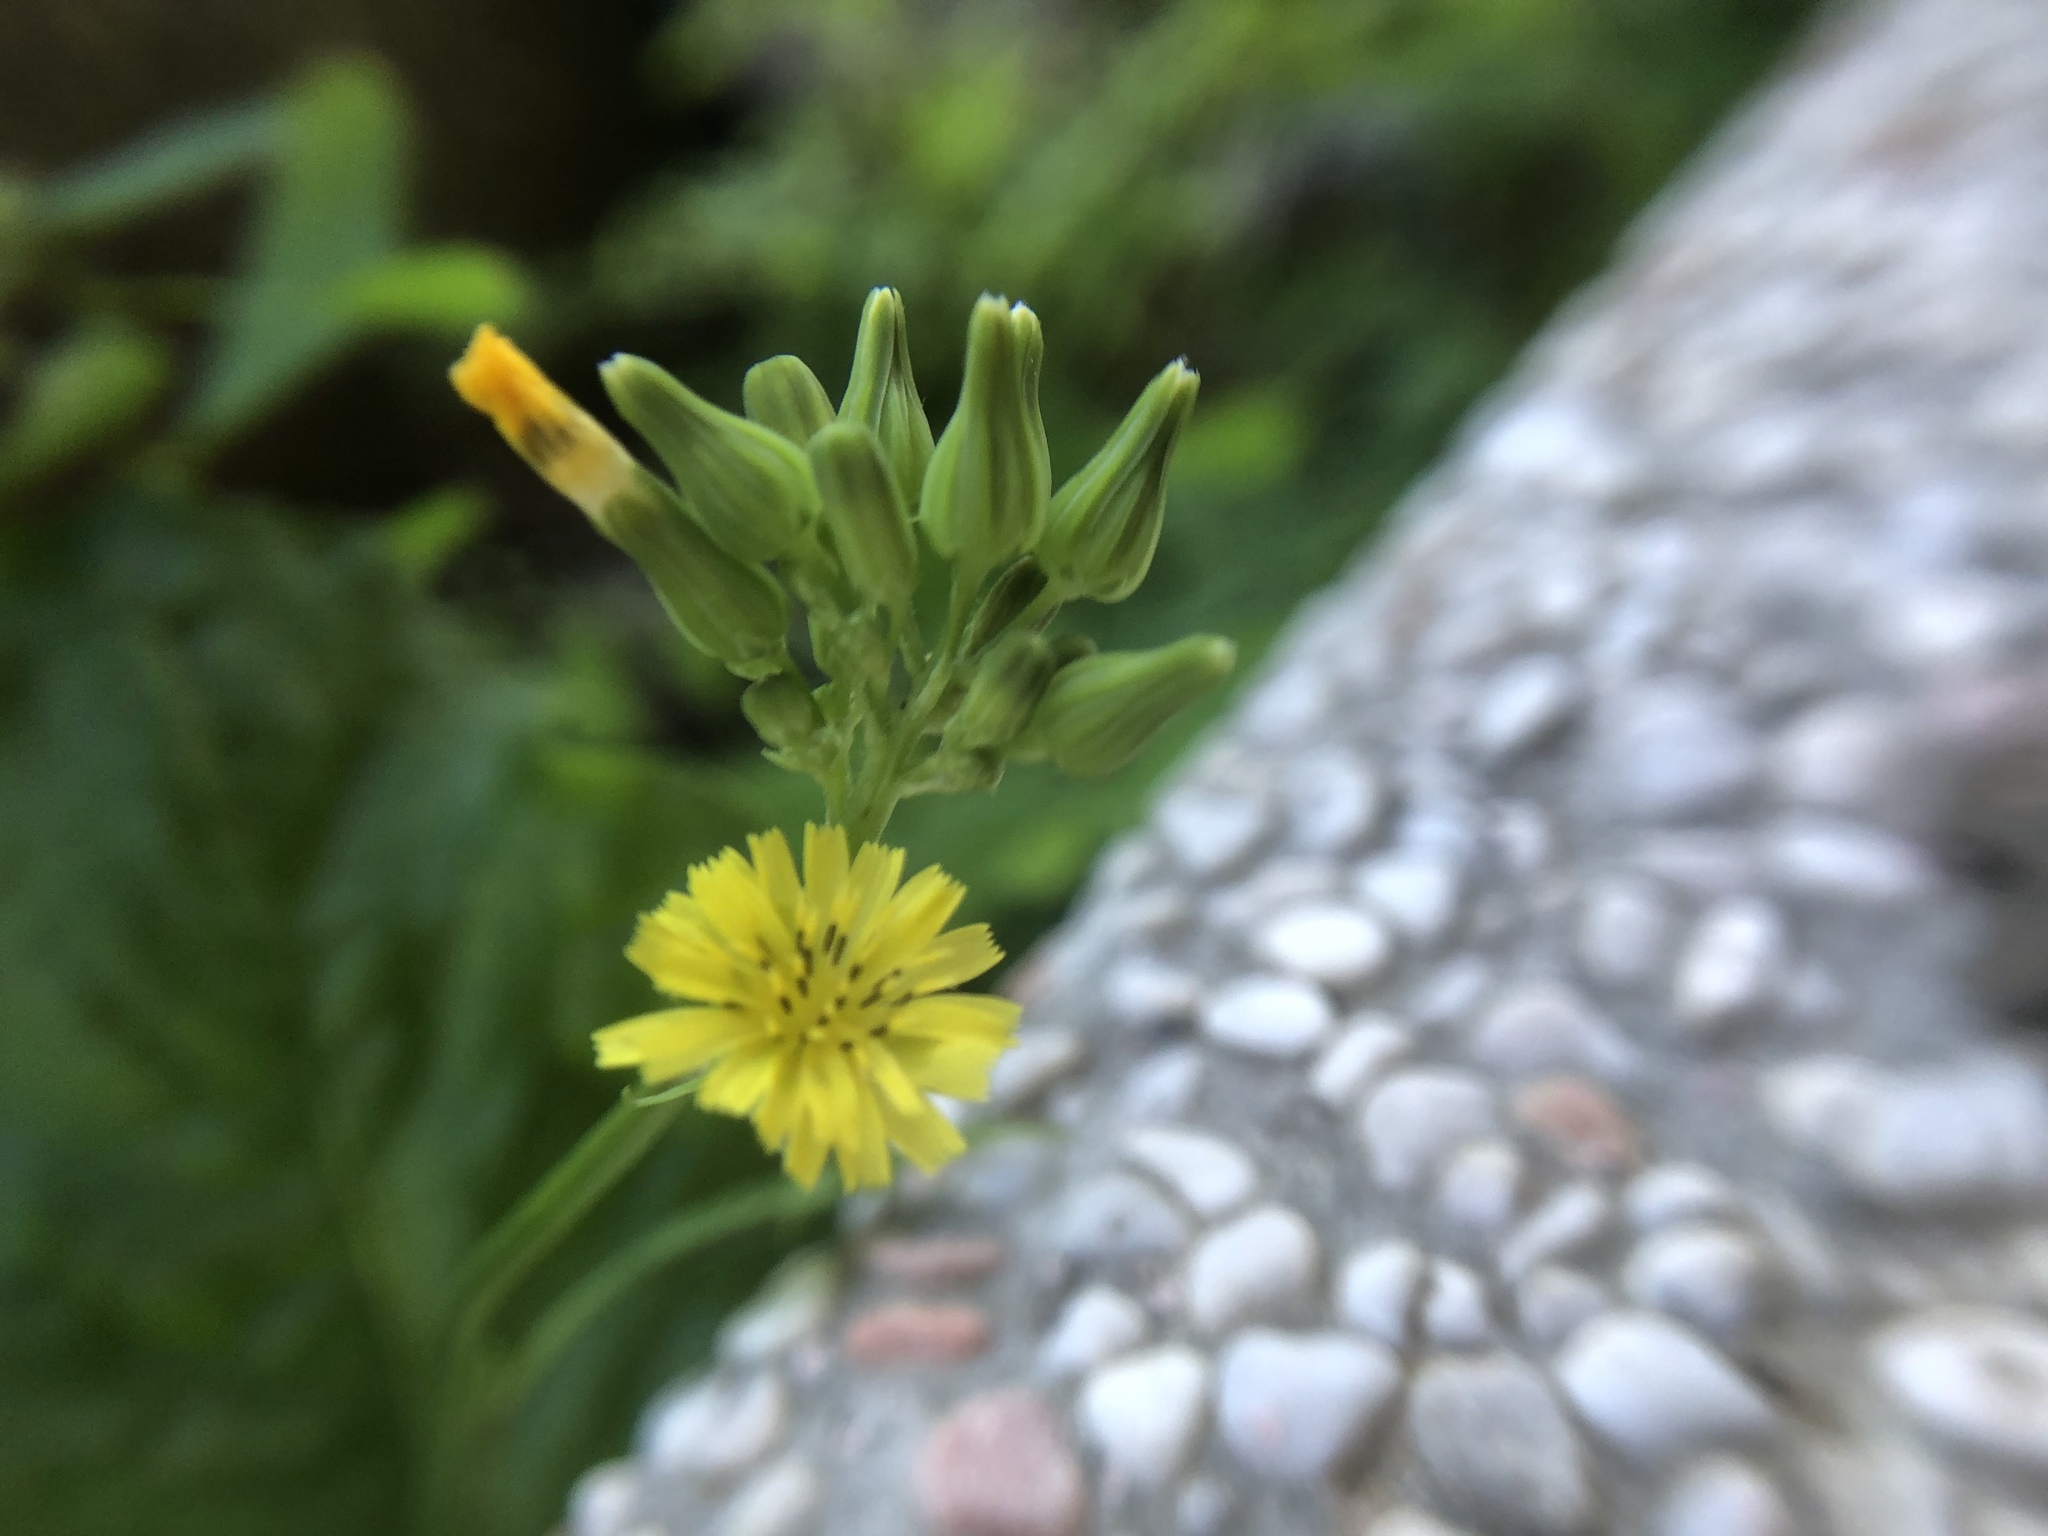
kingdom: Plantae
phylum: Tracheophyta
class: Magnoliopsida
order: Asterales
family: Asteraceae
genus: Youngia
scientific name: Youngia japonica
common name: Oriental false hawksbeard
